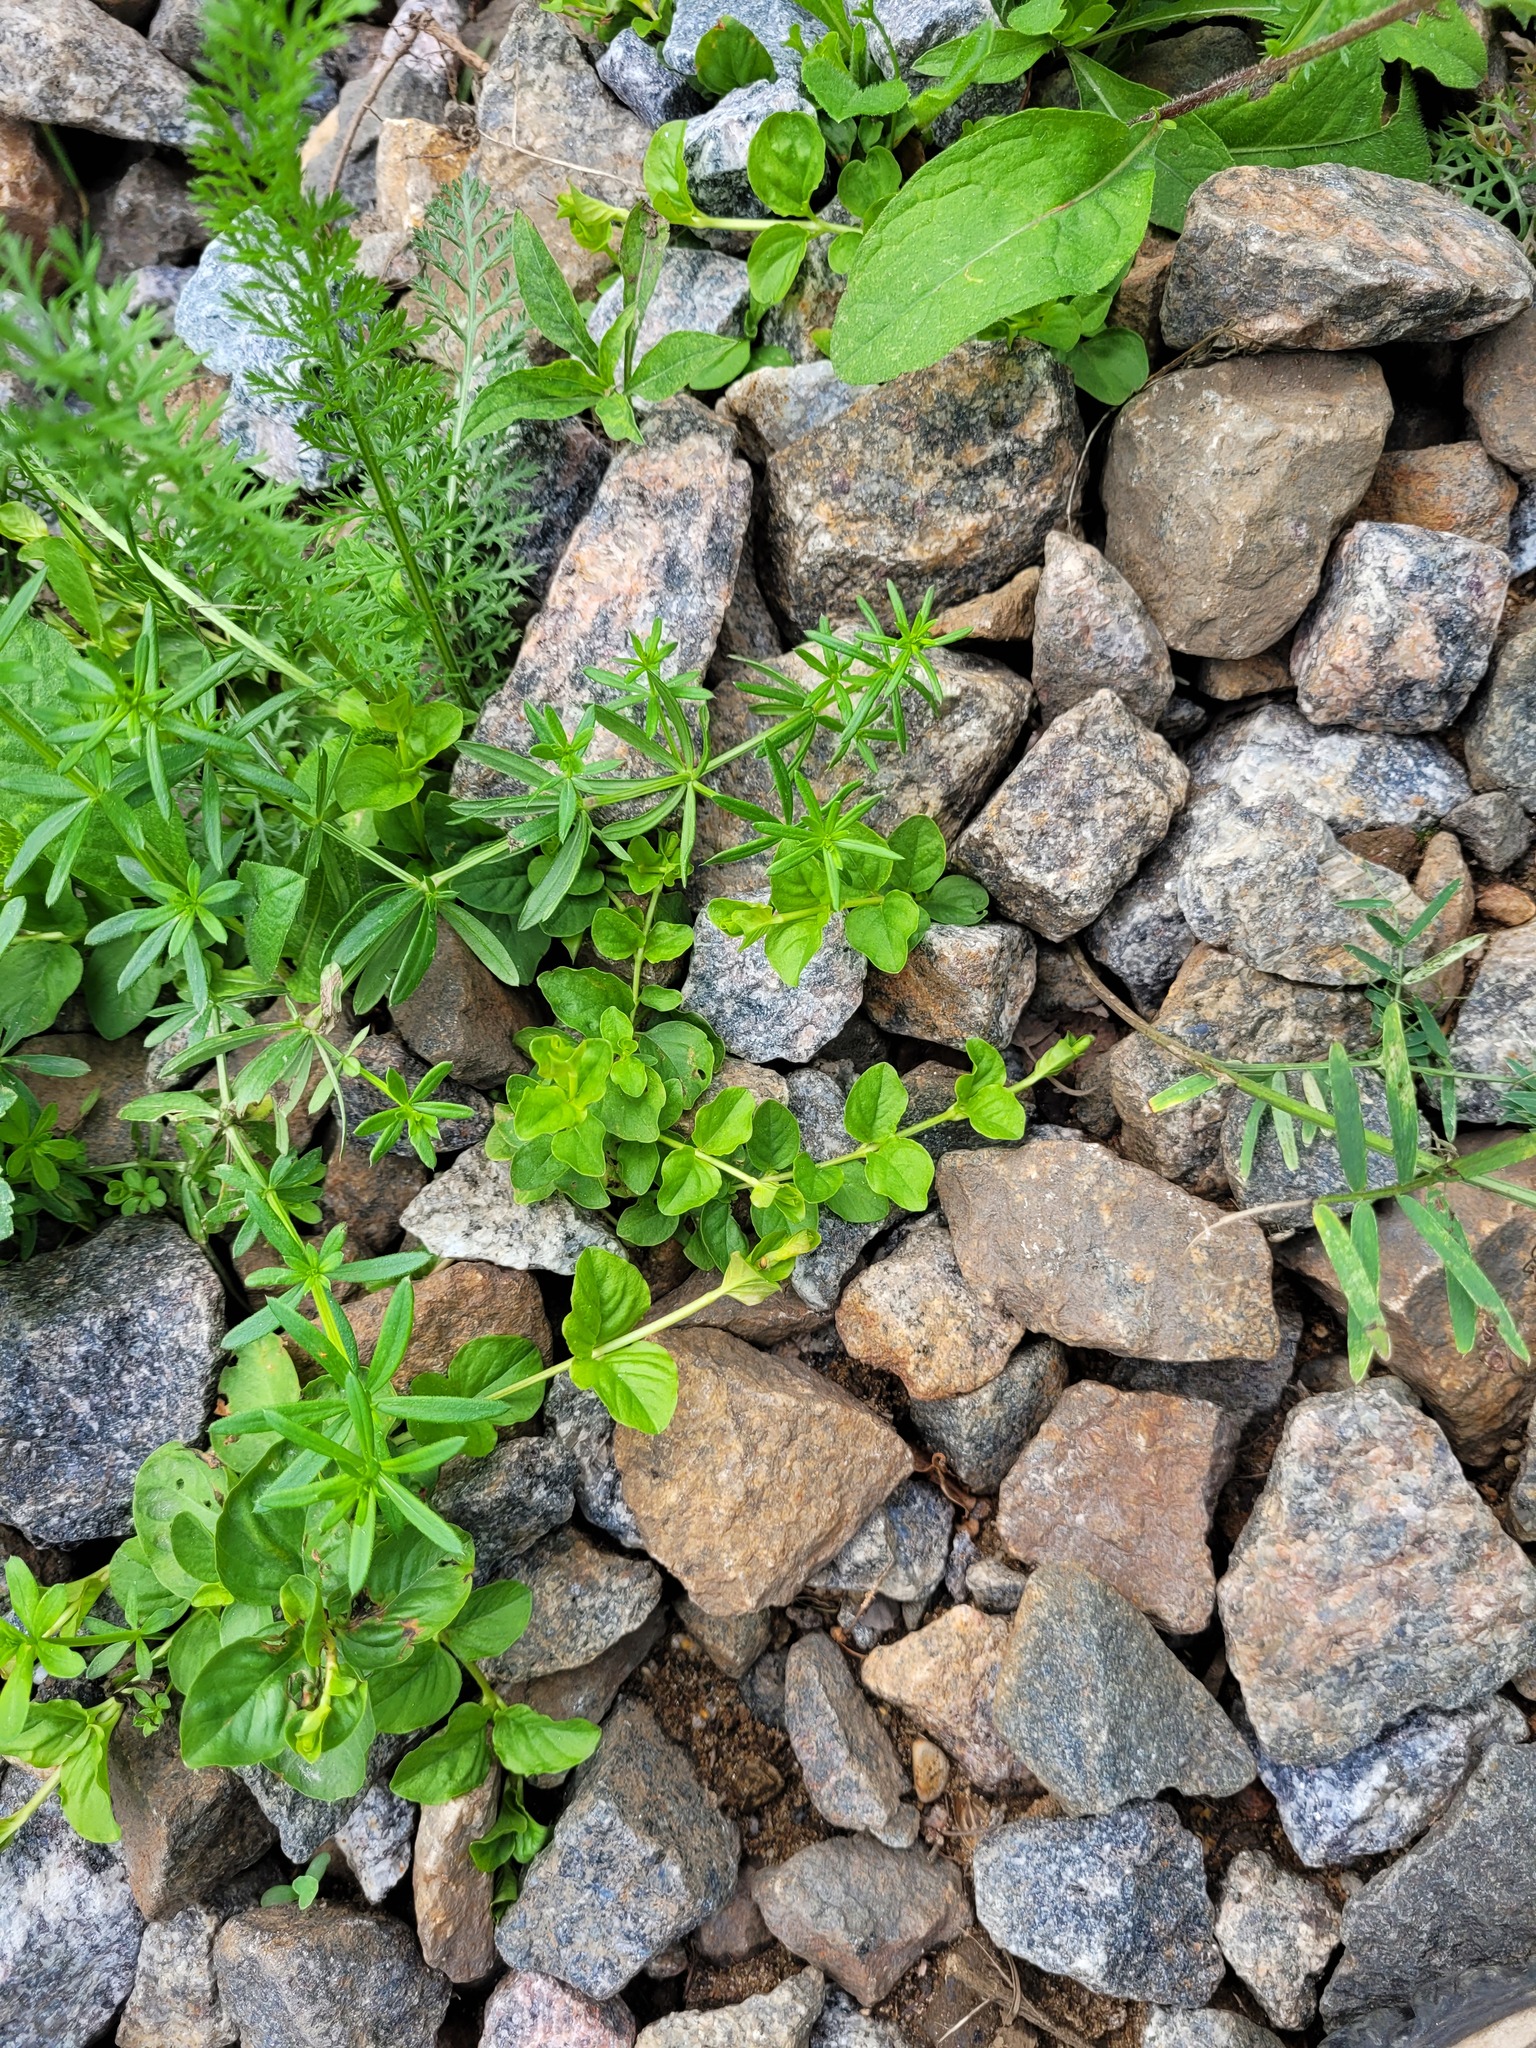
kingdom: Plantae
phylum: Tracheophyta
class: Magnoliopsida
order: Ericales
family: Primulaceae
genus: Lysimachia
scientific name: Lysimachia nummularia
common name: Moneywort
